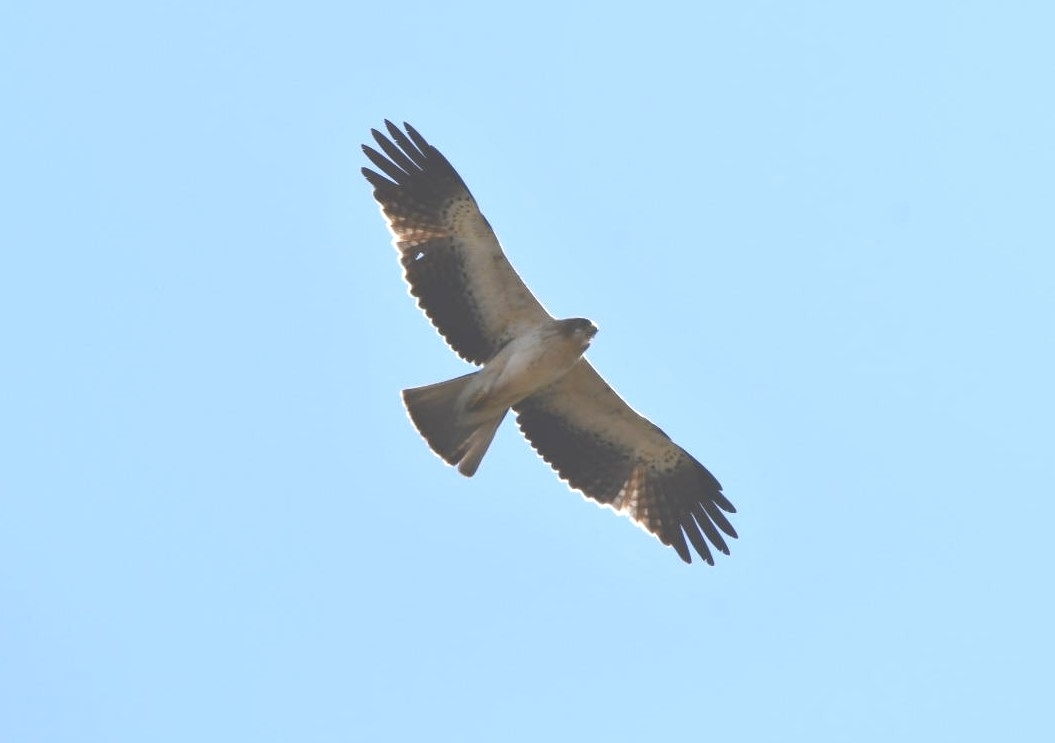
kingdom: Animalia
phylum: Chordata
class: Aves
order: Accipitriformes
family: Accipitridae
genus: Hieraaetus
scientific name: Hieraaetus pennatus
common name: Booted eagle
